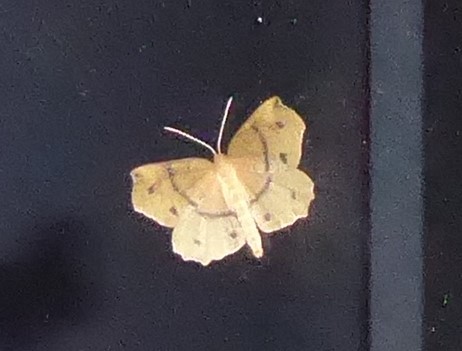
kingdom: Animalia
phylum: Arthropoda
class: Insecta
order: Lepidoptera
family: Geometridae
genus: Xyridacma
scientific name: Xyridacma ustaria
